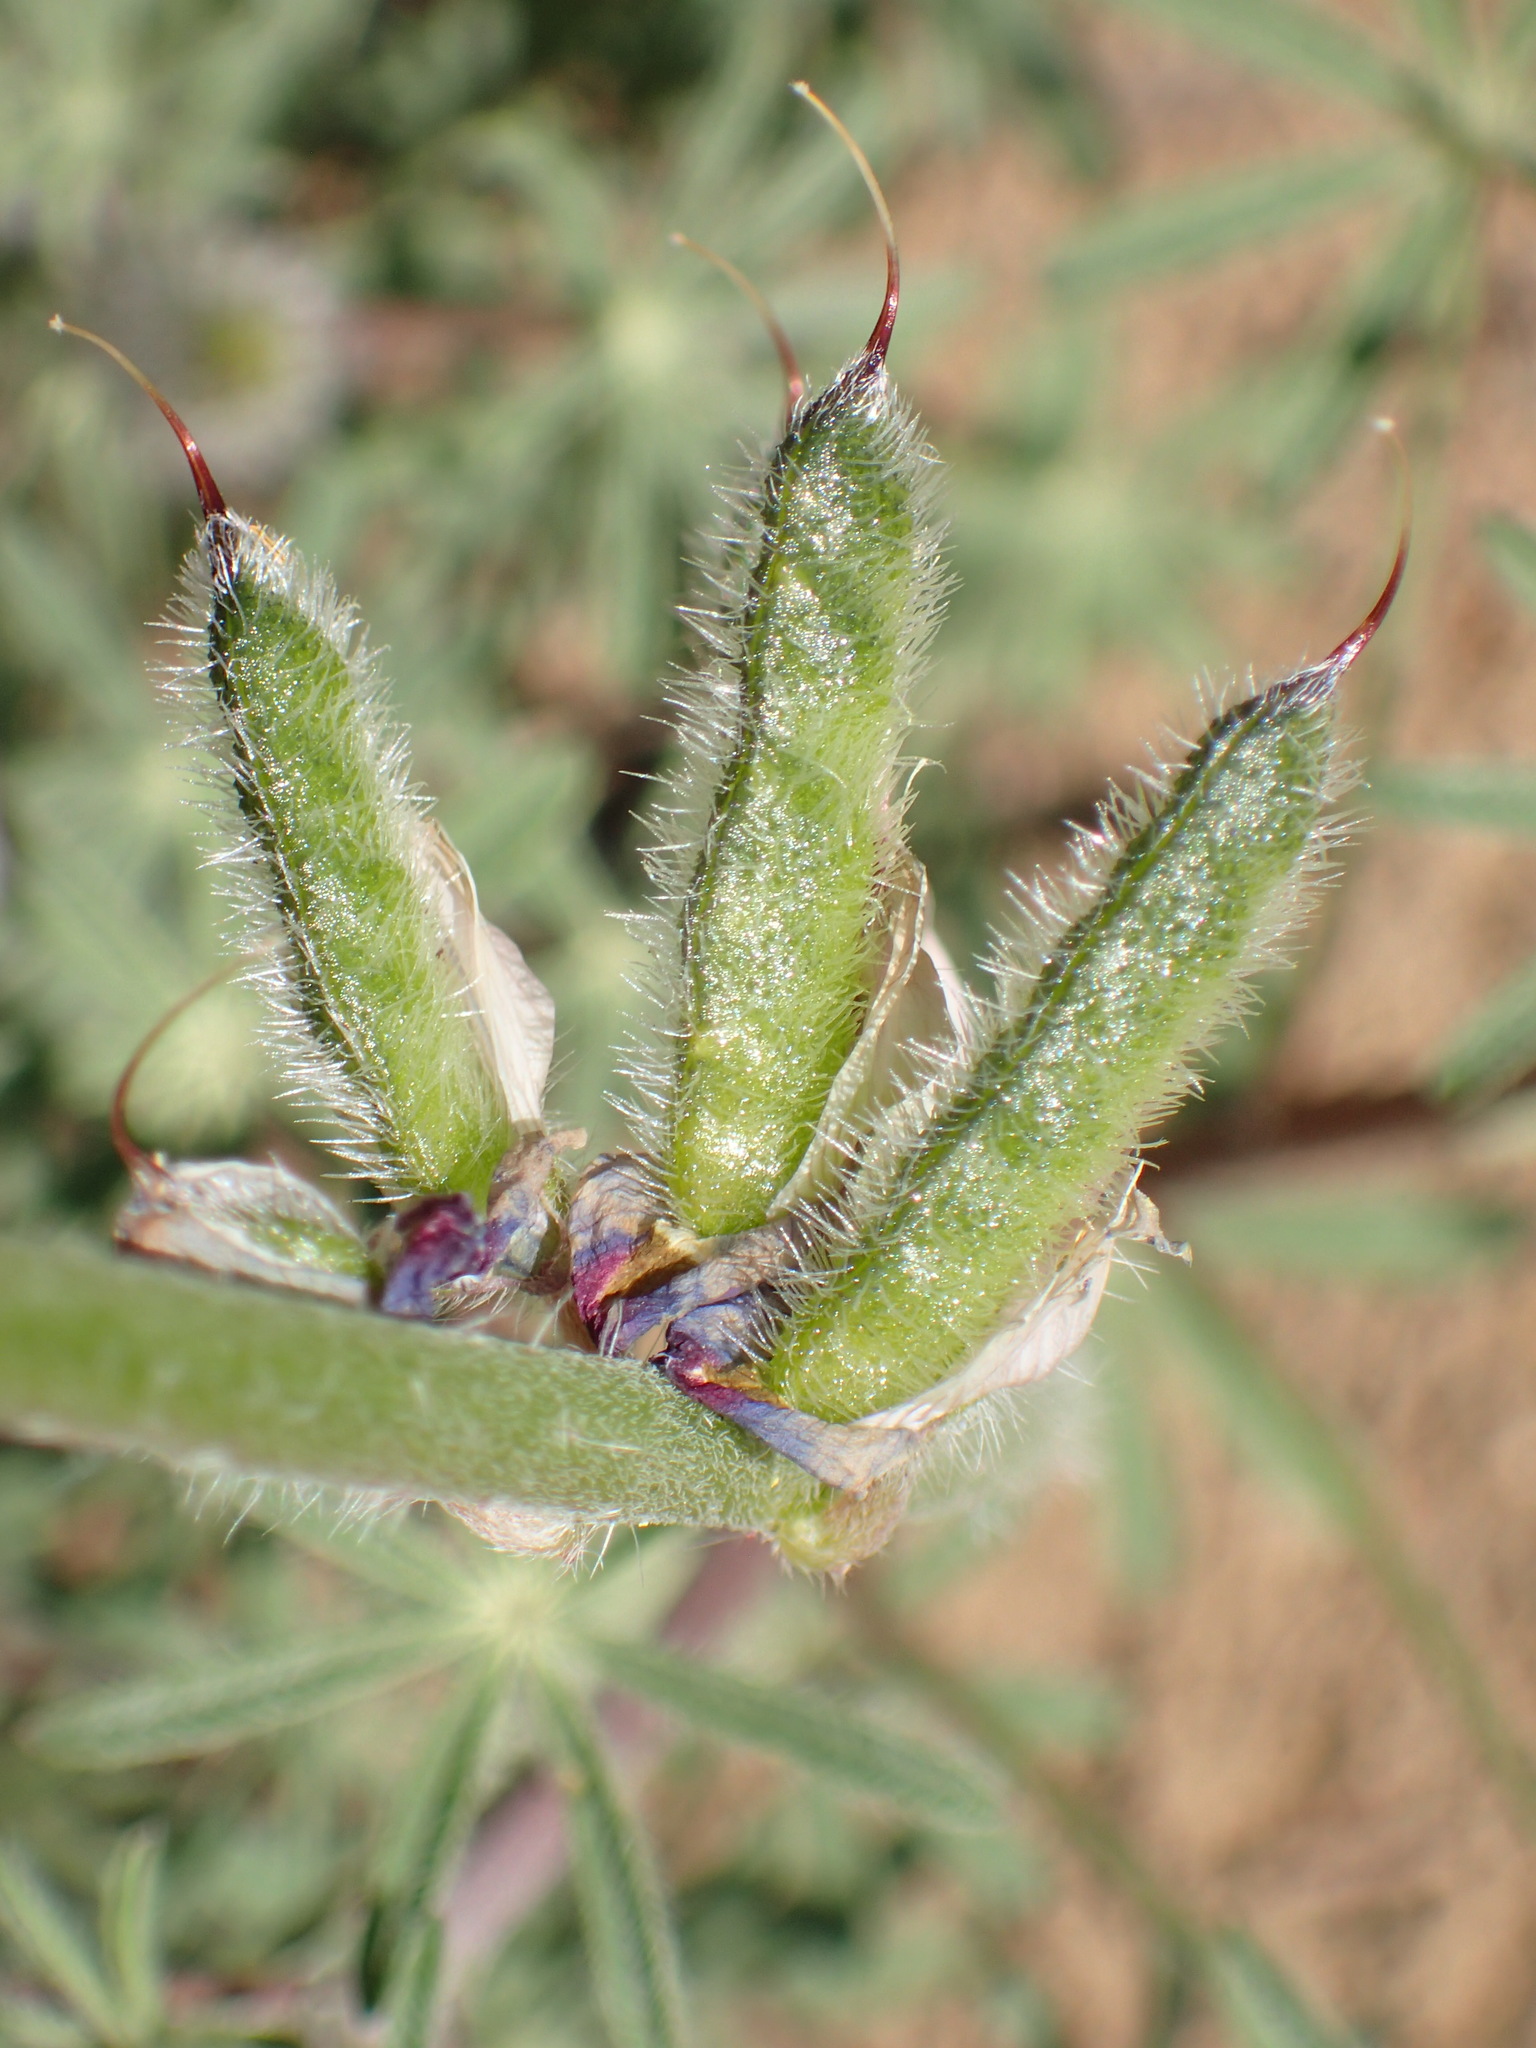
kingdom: Plantae
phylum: Tracheophyta
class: Magnoliopsida
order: Fabales
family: Fabaceae
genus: Lupinus
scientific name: Lupinus sparsiflorus
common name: Coulter's lupine
